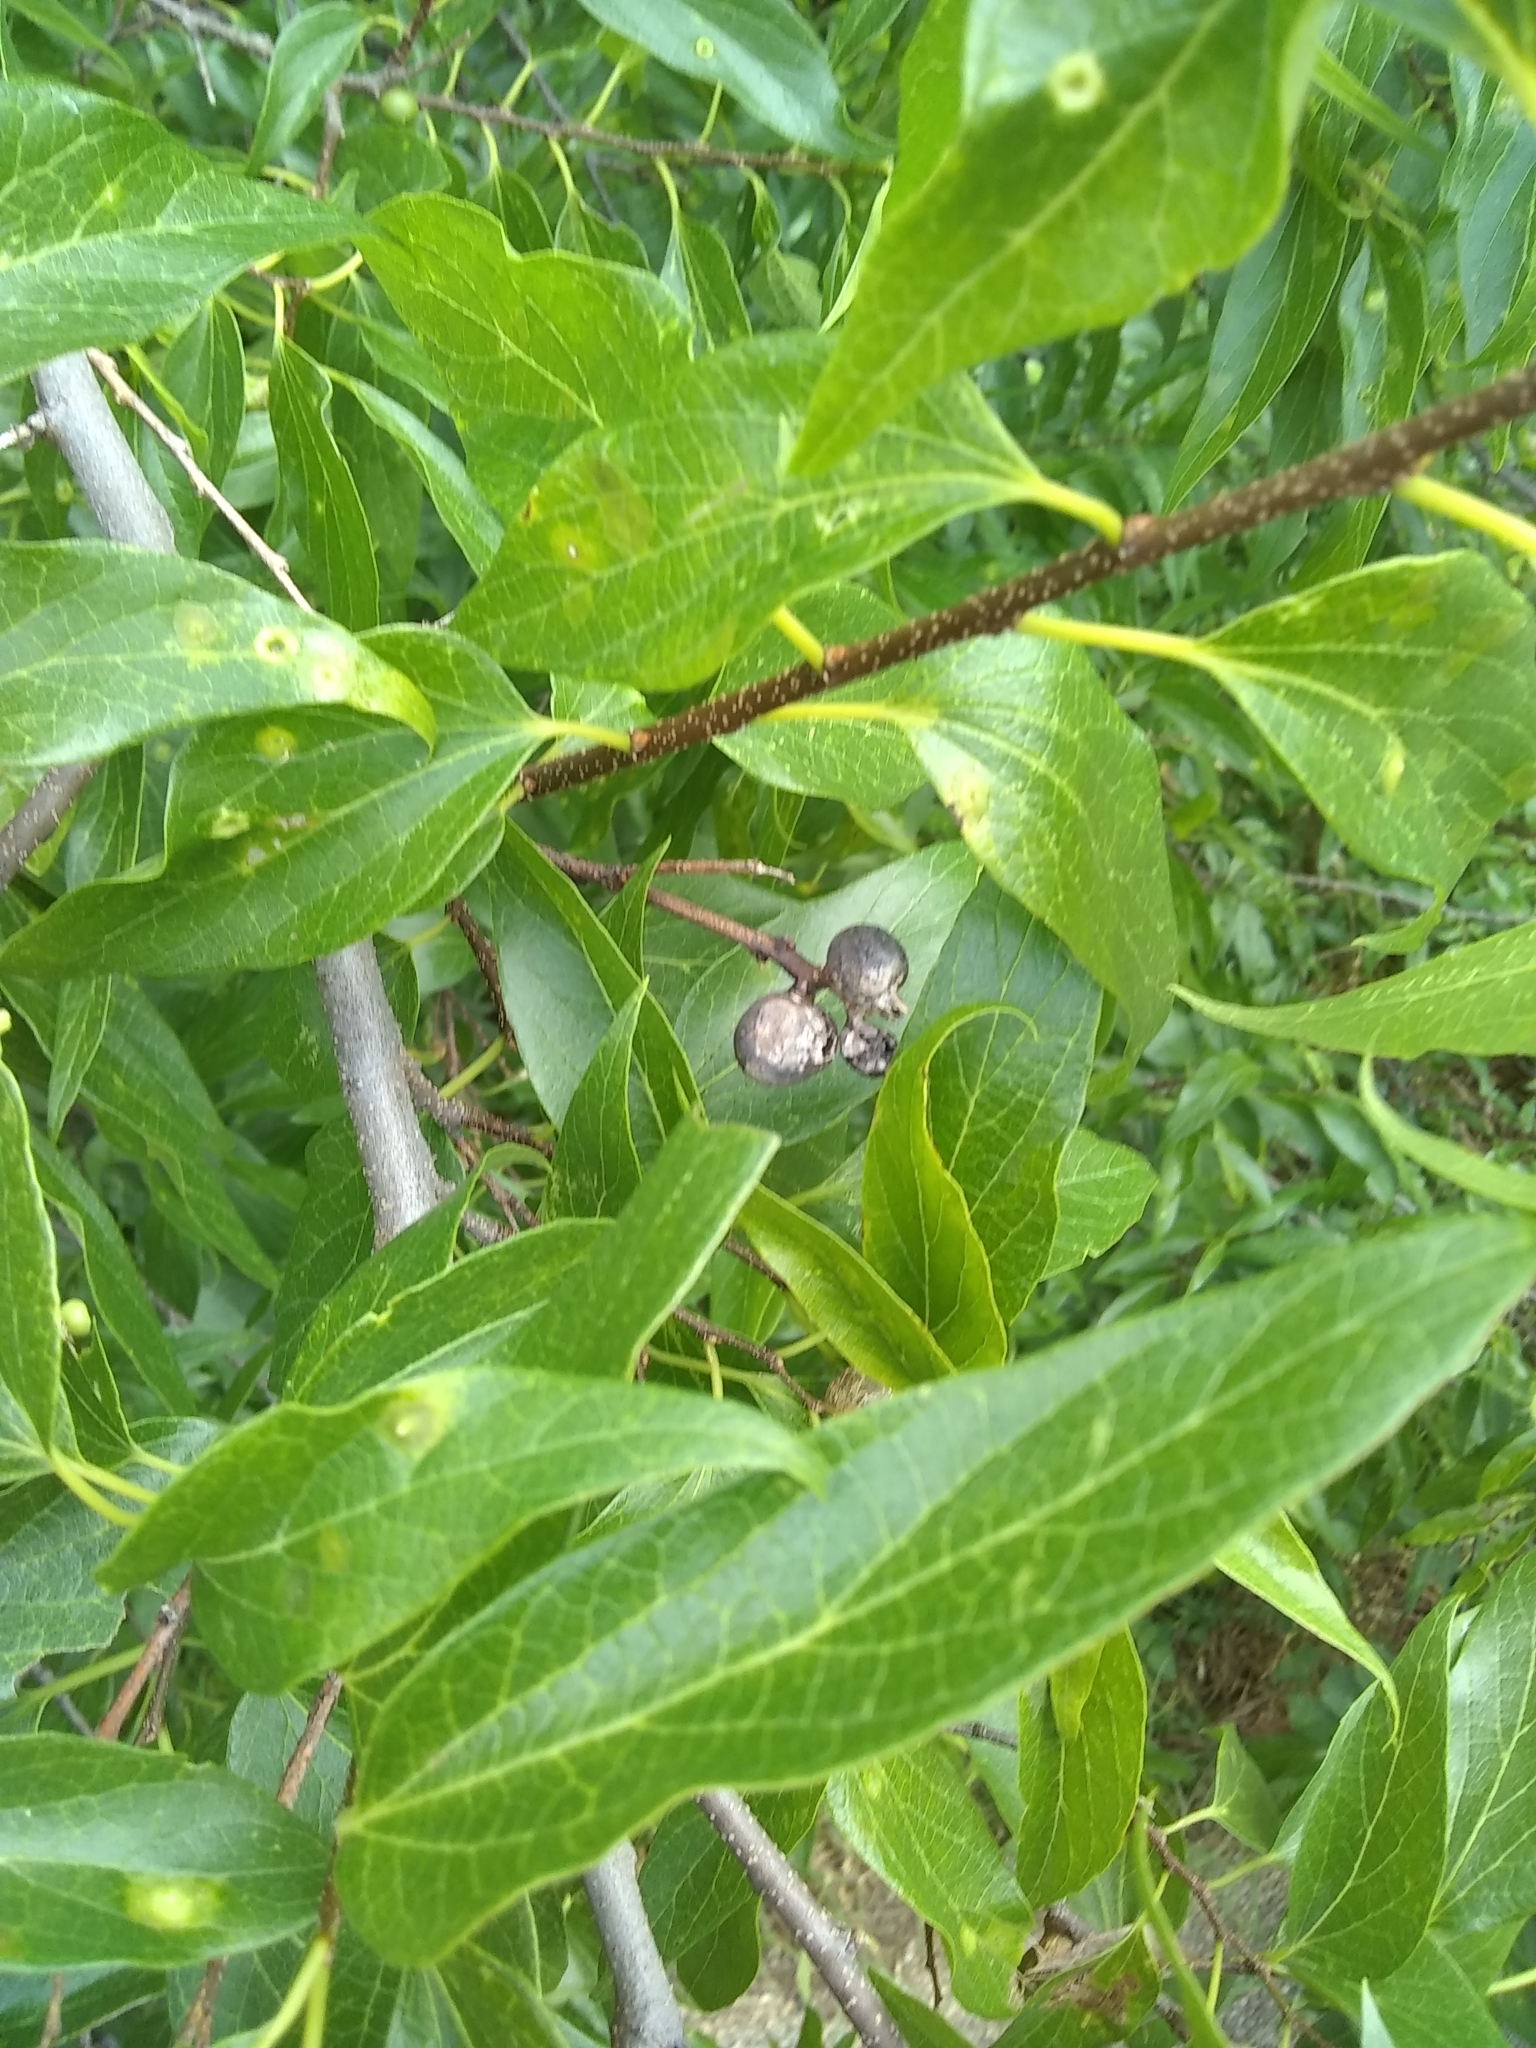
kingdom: Animalia
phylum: Arthropoda
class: Insecta
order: Hemiptera
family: Aphalaridae
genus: Pachypsylla
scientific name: Pachypsylla venusta
